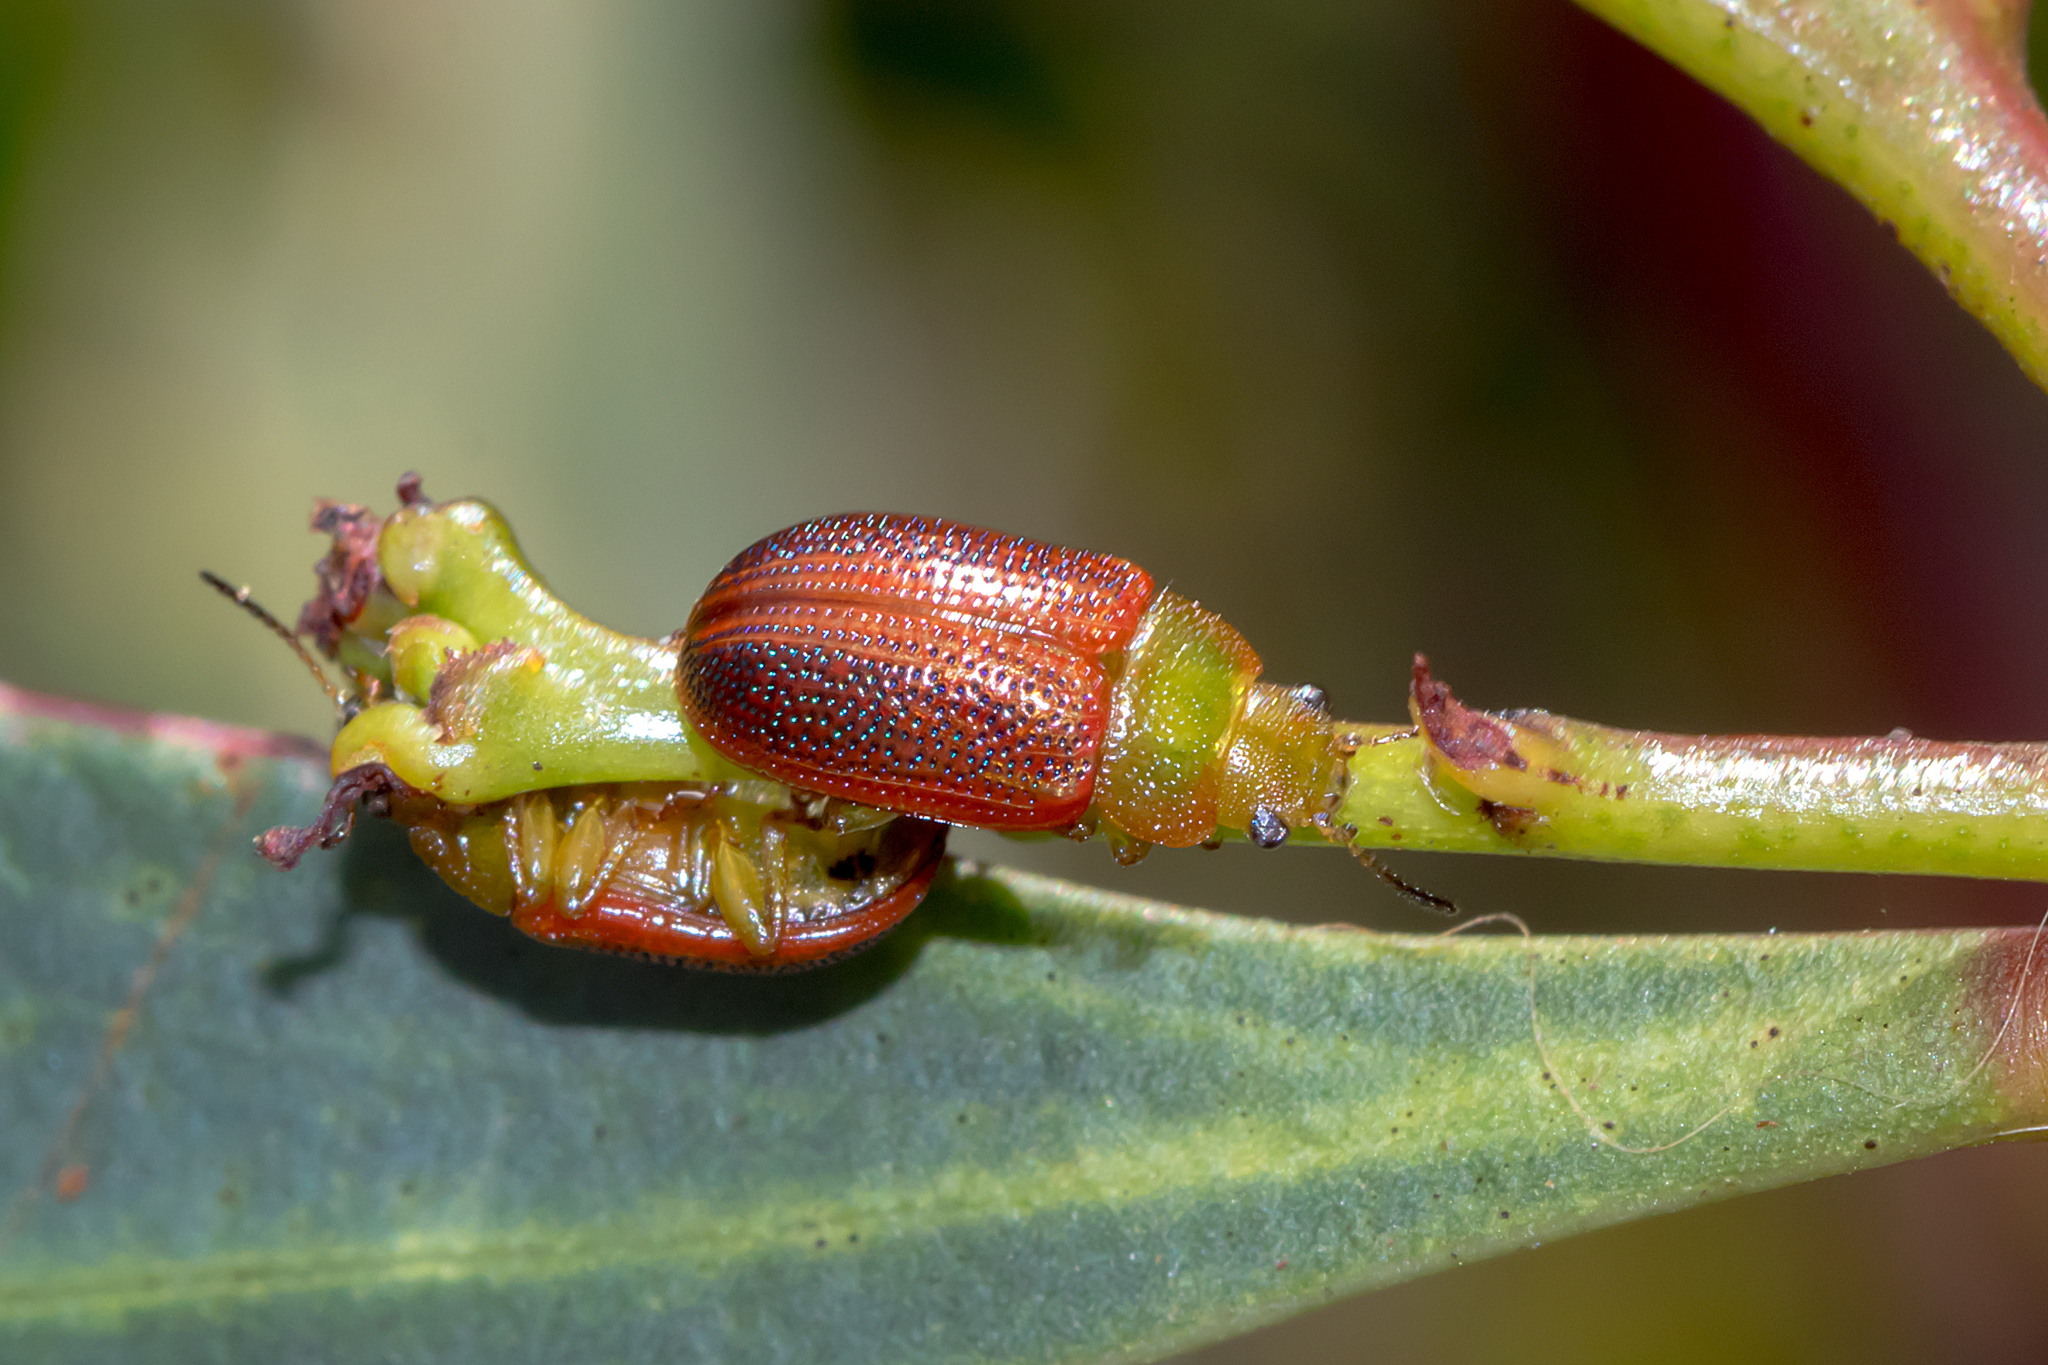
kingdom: Animalia
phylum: Arthropoda
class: Insecta
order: Coleoptera
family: Chrysomelidae
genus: Calomela
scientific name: Calomela
